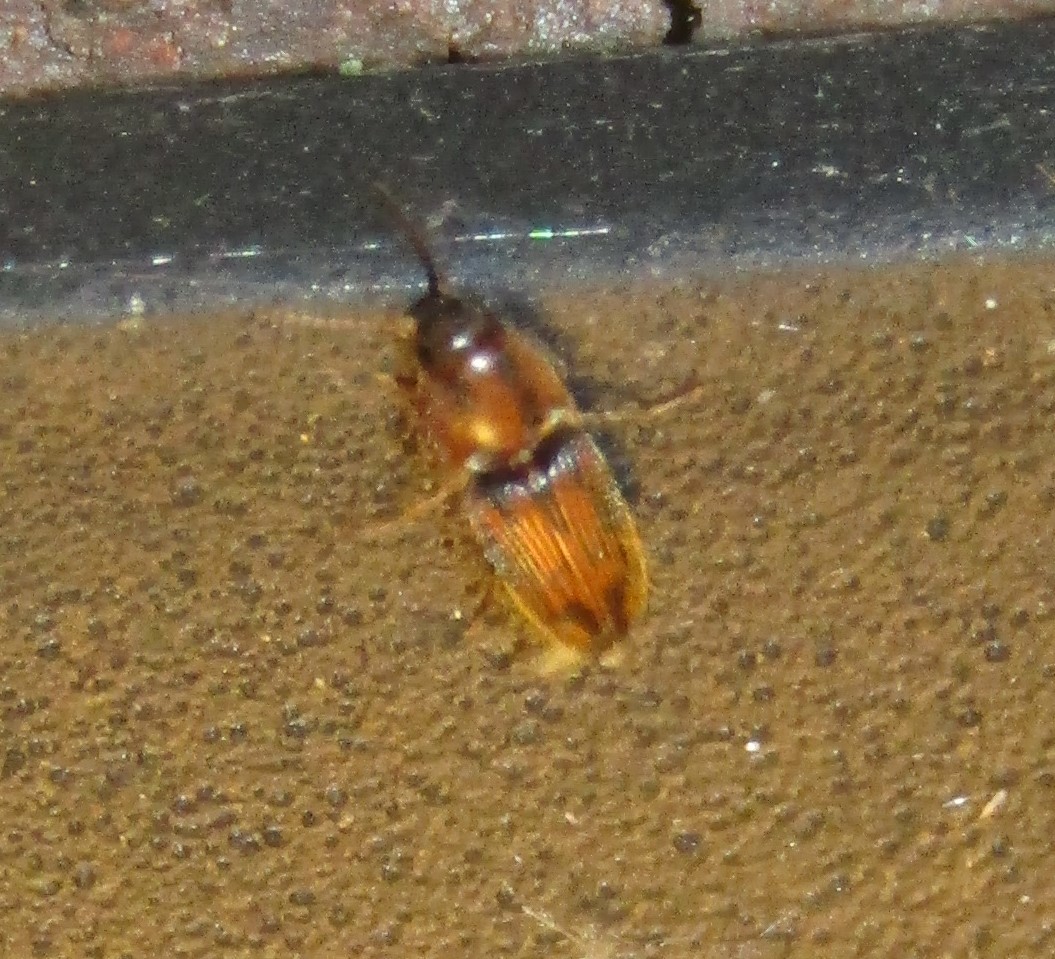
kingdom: Animalia
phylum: Arthropoda
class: Insecta
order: Coleoptera
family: Elateridae
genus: Monocrepidius
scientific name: Monocrepidius bellus
